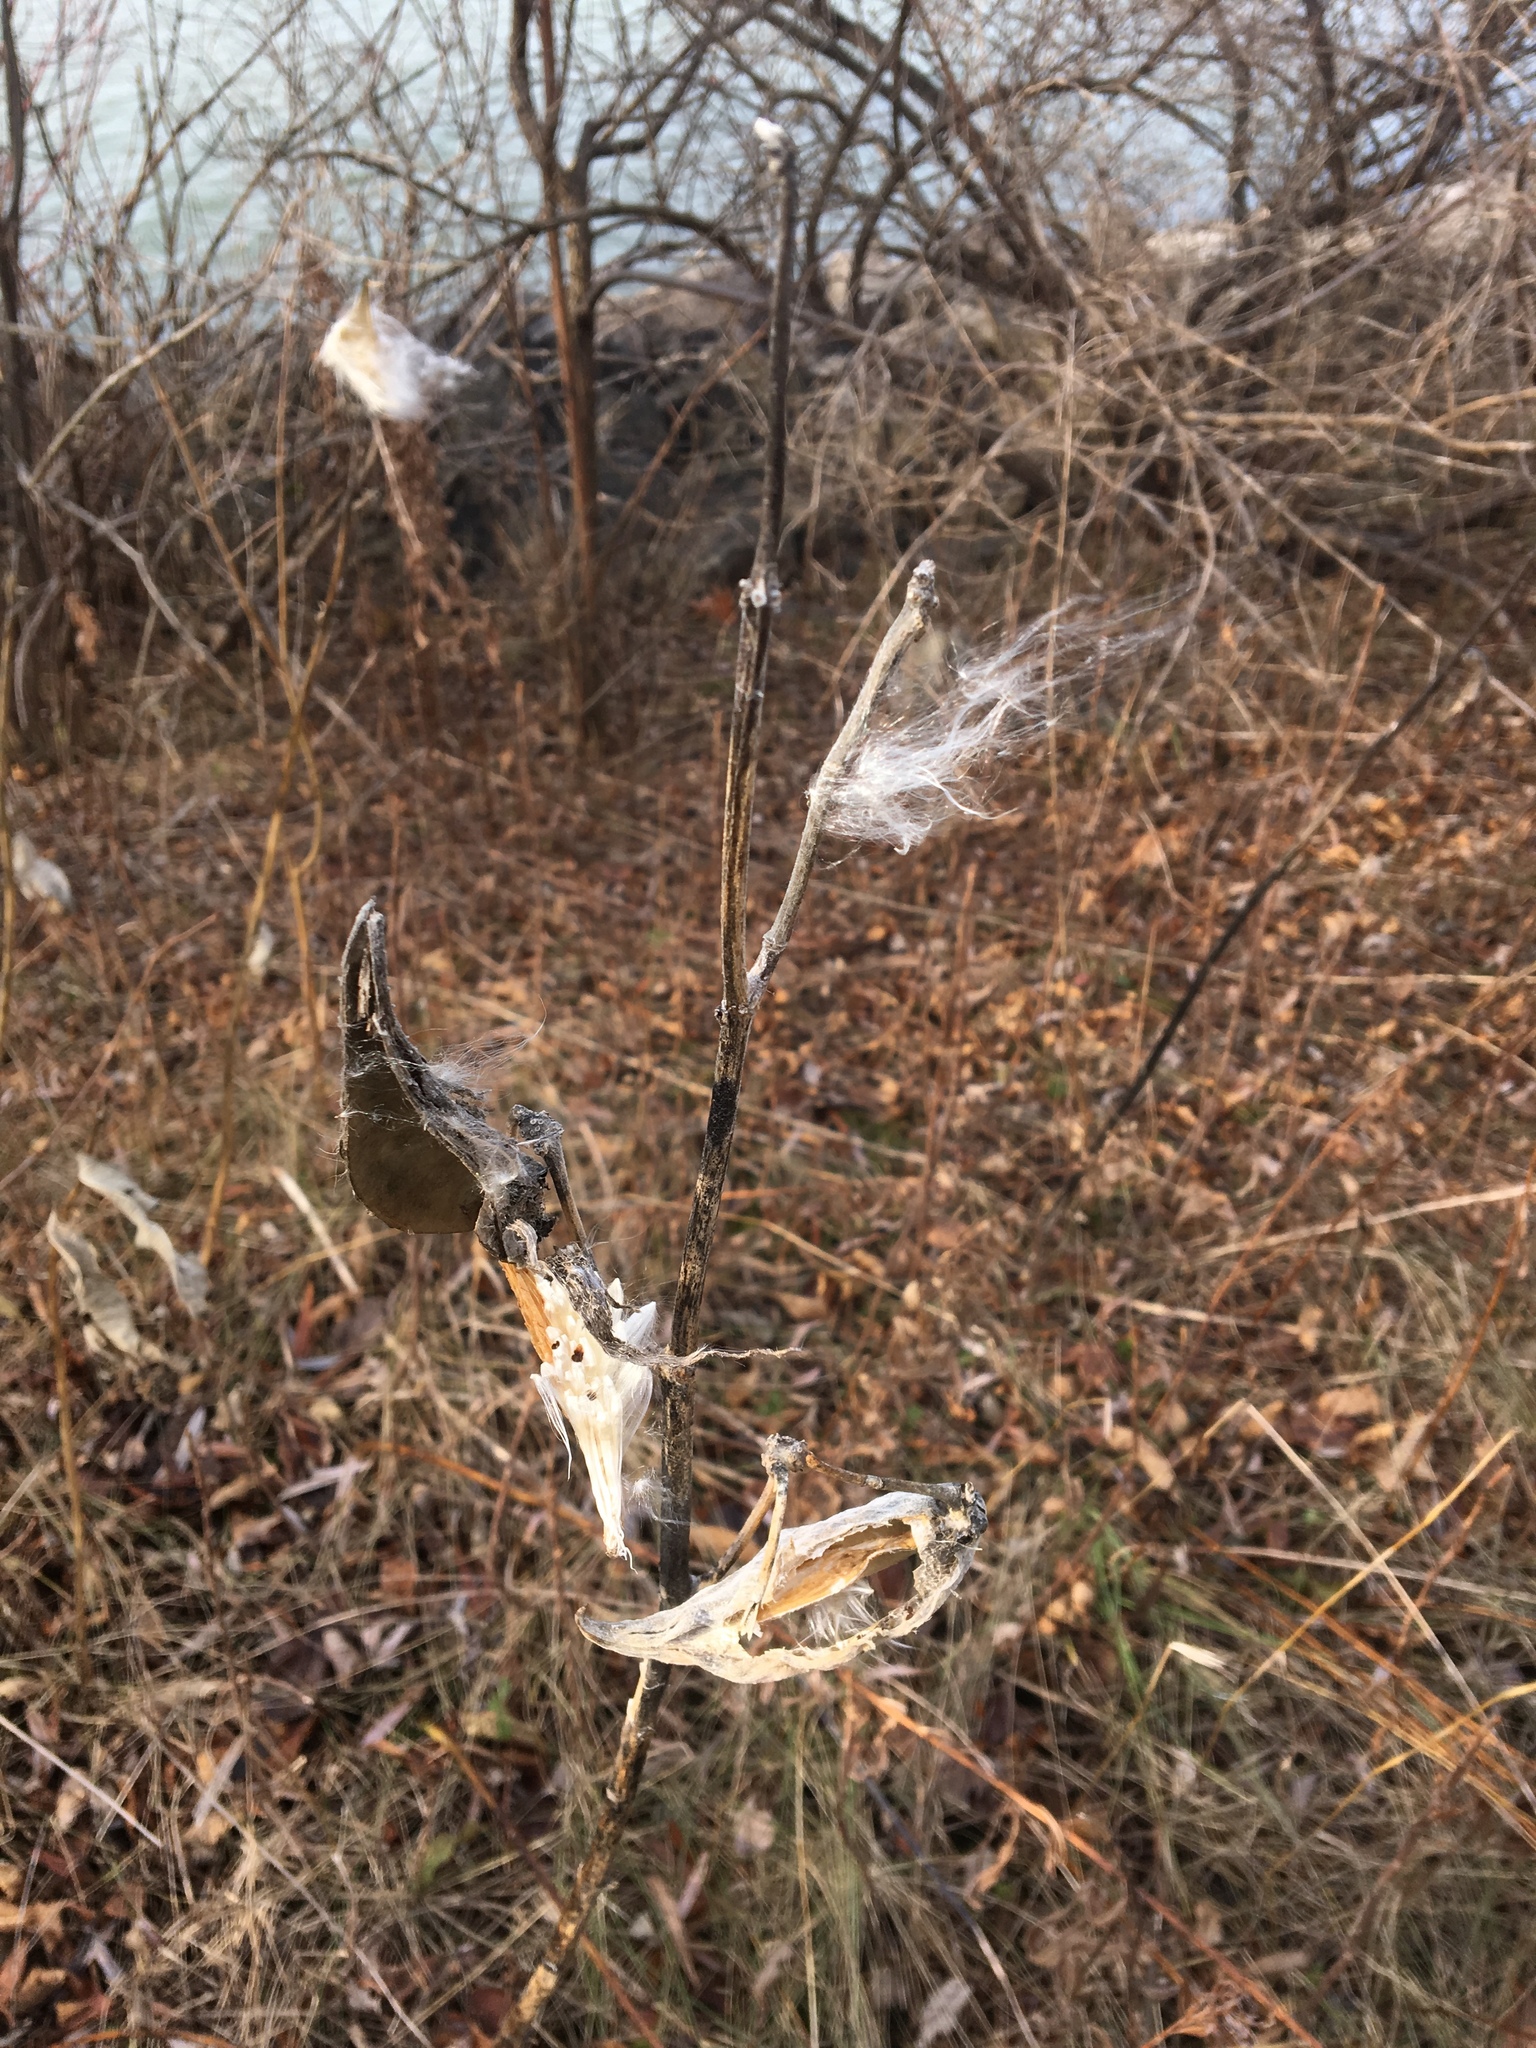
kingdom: Plantae
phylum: Tracheophyta
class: Magnoliopsida
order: Gentianales
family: Apocynaceae
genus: Asclepias
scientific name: Asclepias syriaca
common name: Common milkweed
